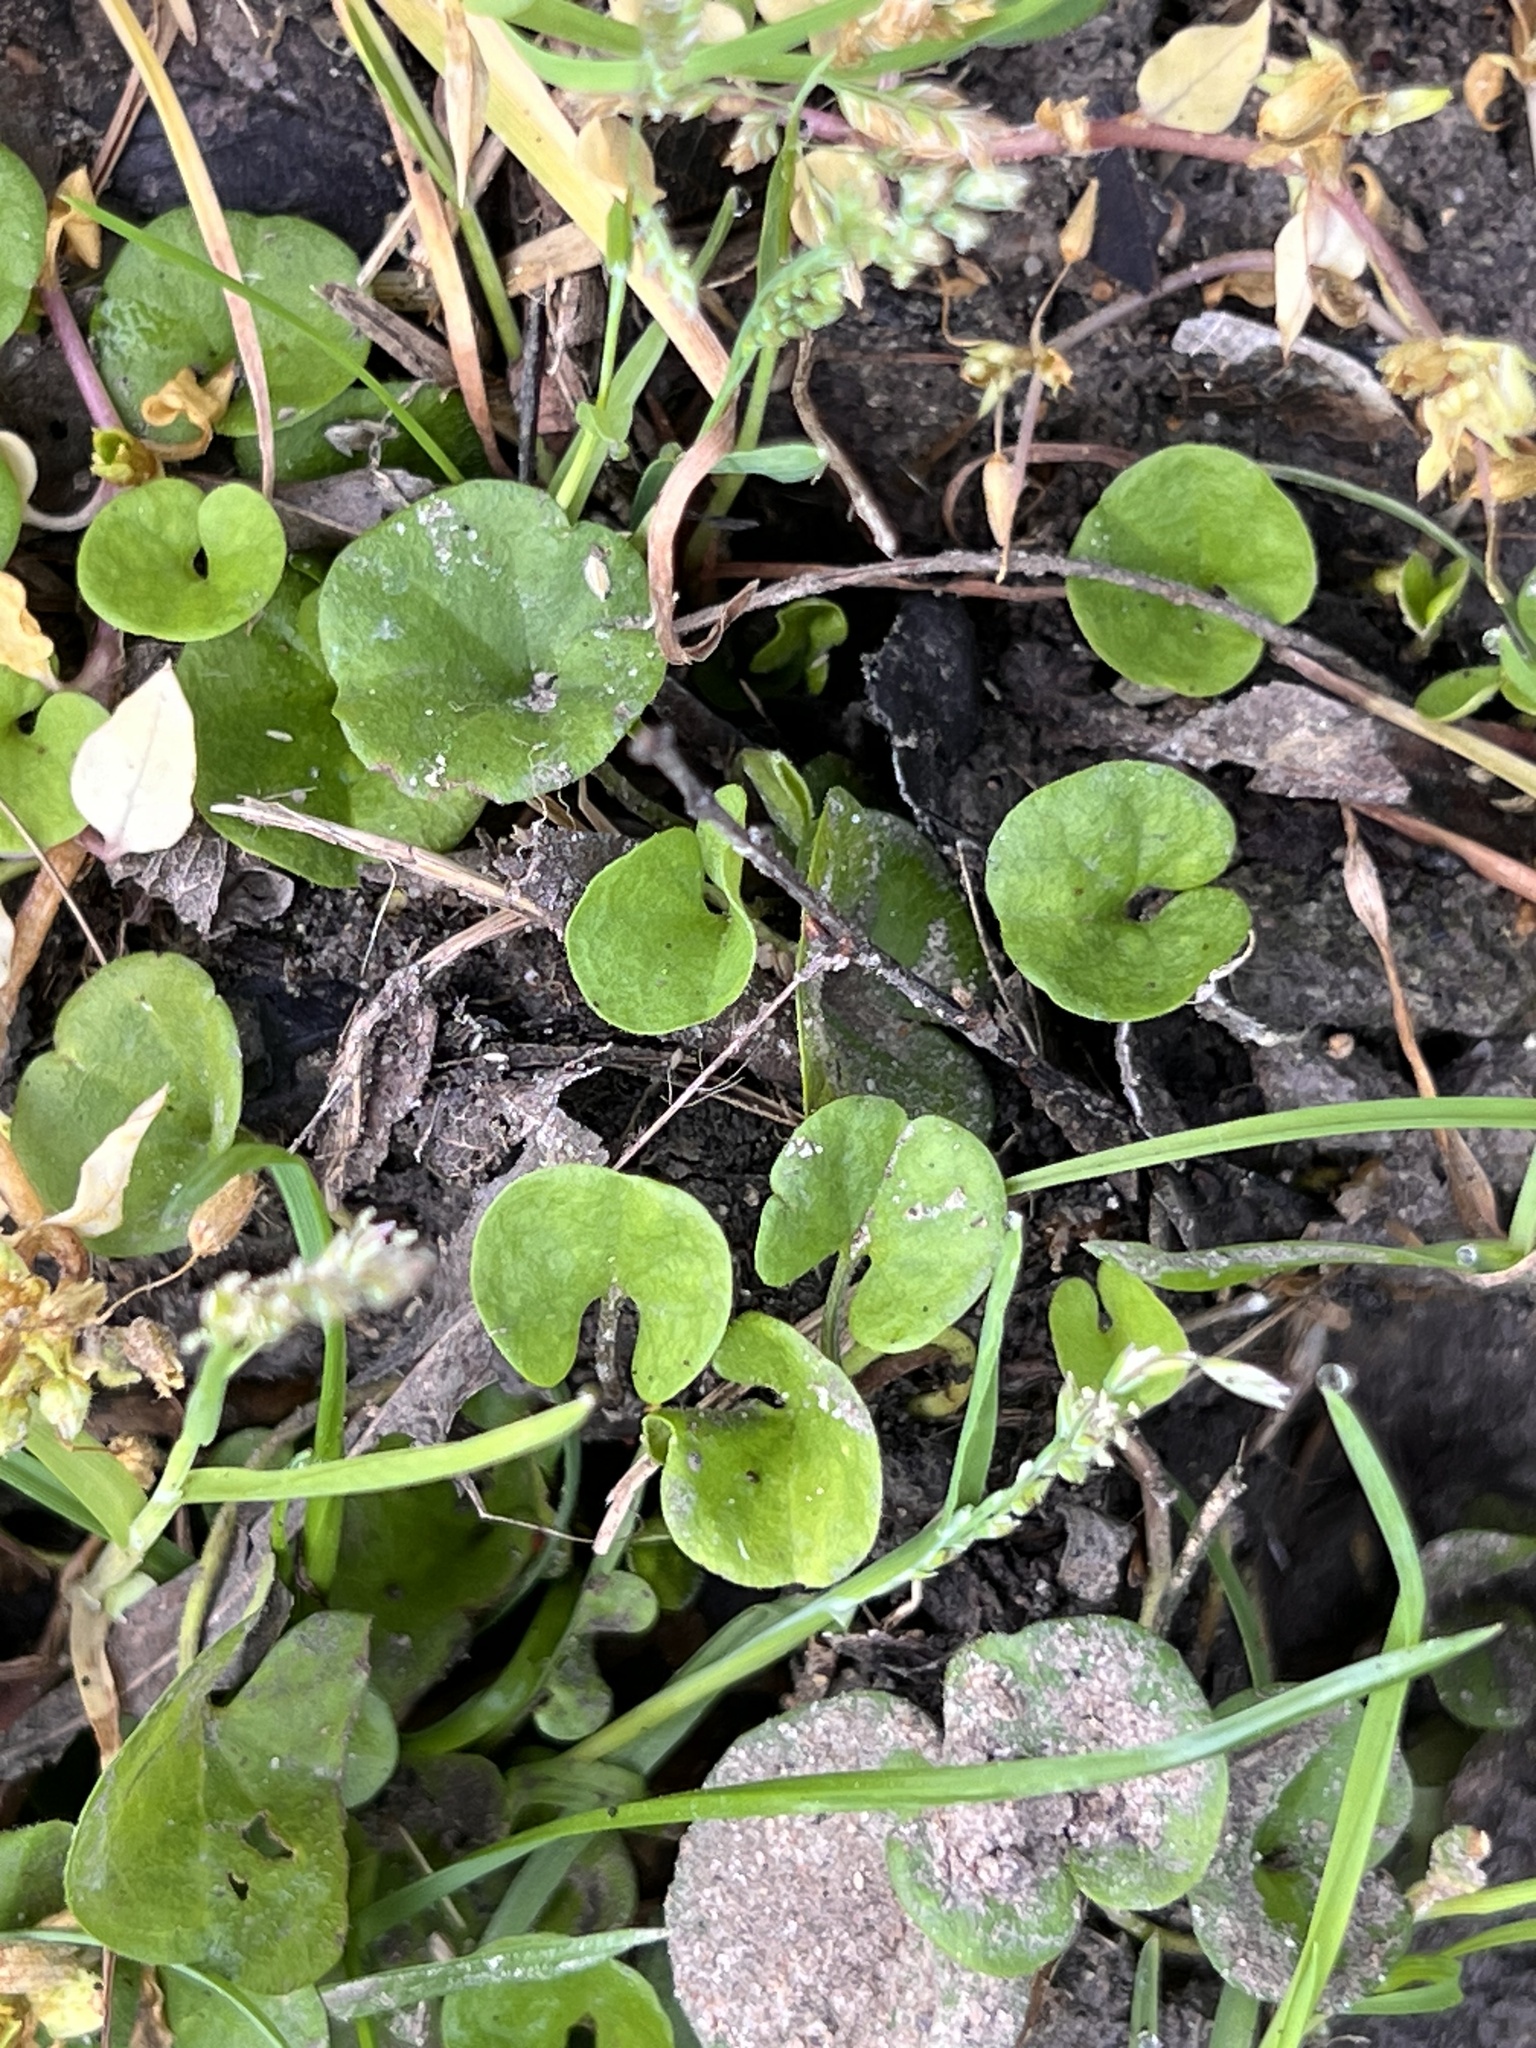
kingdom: Plantae
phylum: Tracheophyta
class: Magnoliopsida
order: Solanales
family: Convolvulaceae
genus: Dichondra
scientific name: Dichondra carolinensis
